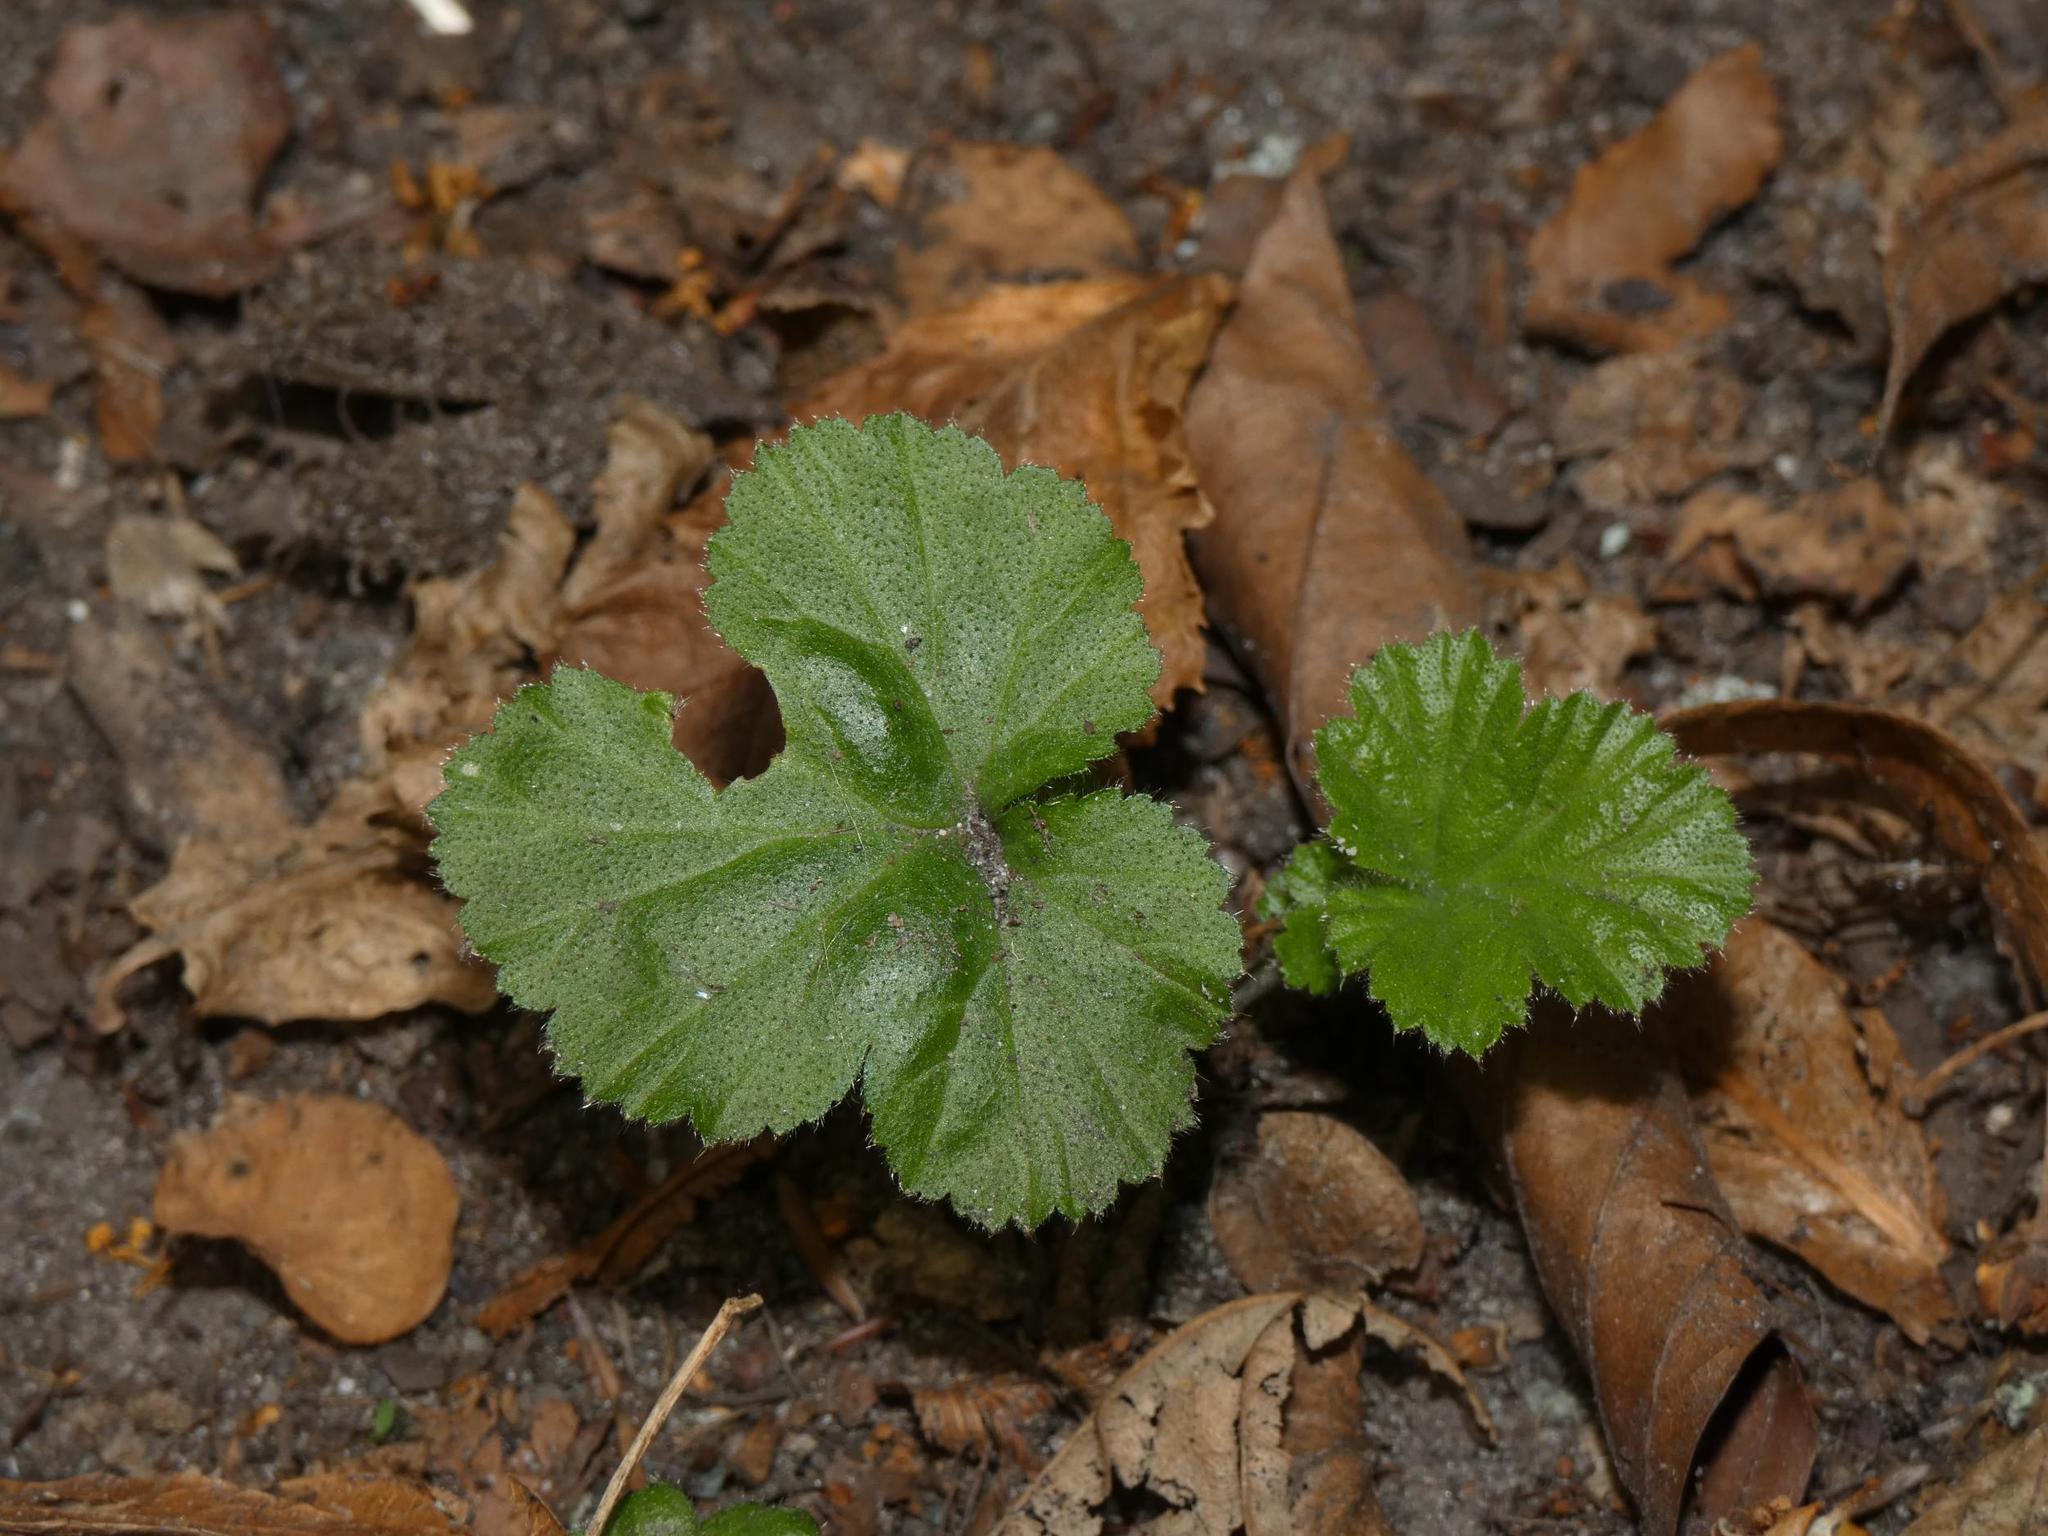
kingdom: Plantae
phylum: Tracheophyta
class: Magnoliopsida
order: Rosales
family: Rosaceae
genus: Geum
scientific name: Geum urbanum
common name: Wood avens
